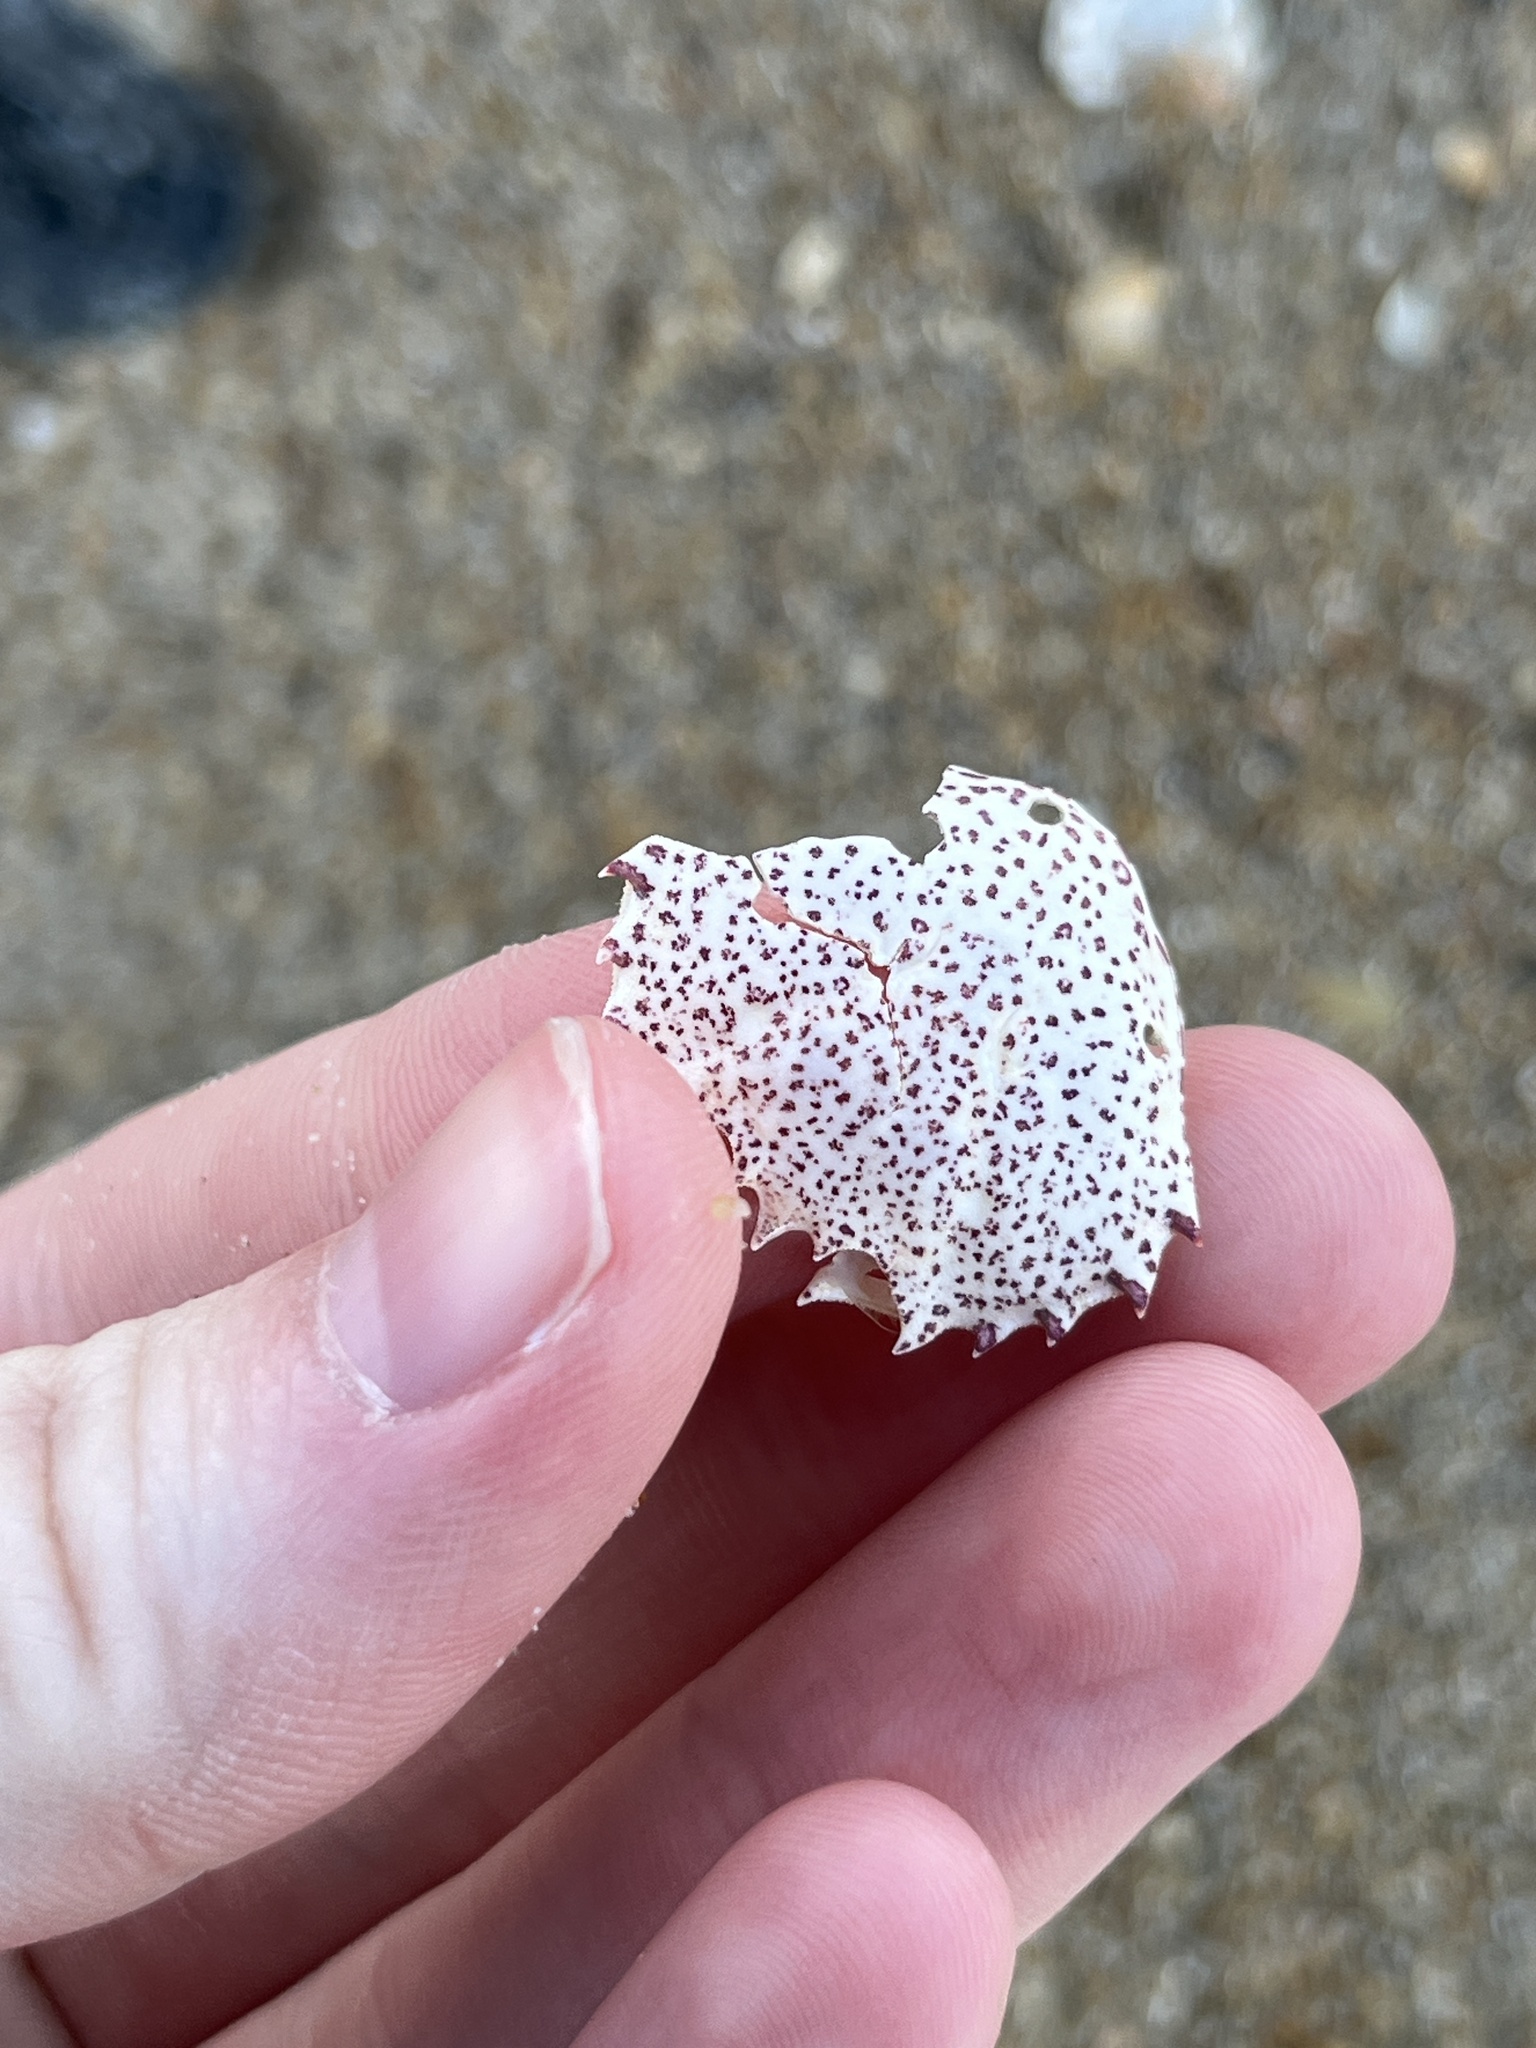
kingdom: Animalia
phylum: Arthropoda
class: Malacostraca
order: Decapoda
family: Ovalipidae
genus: Ovalipes
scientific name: Ovalipes ocellatus
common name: Lady crab
